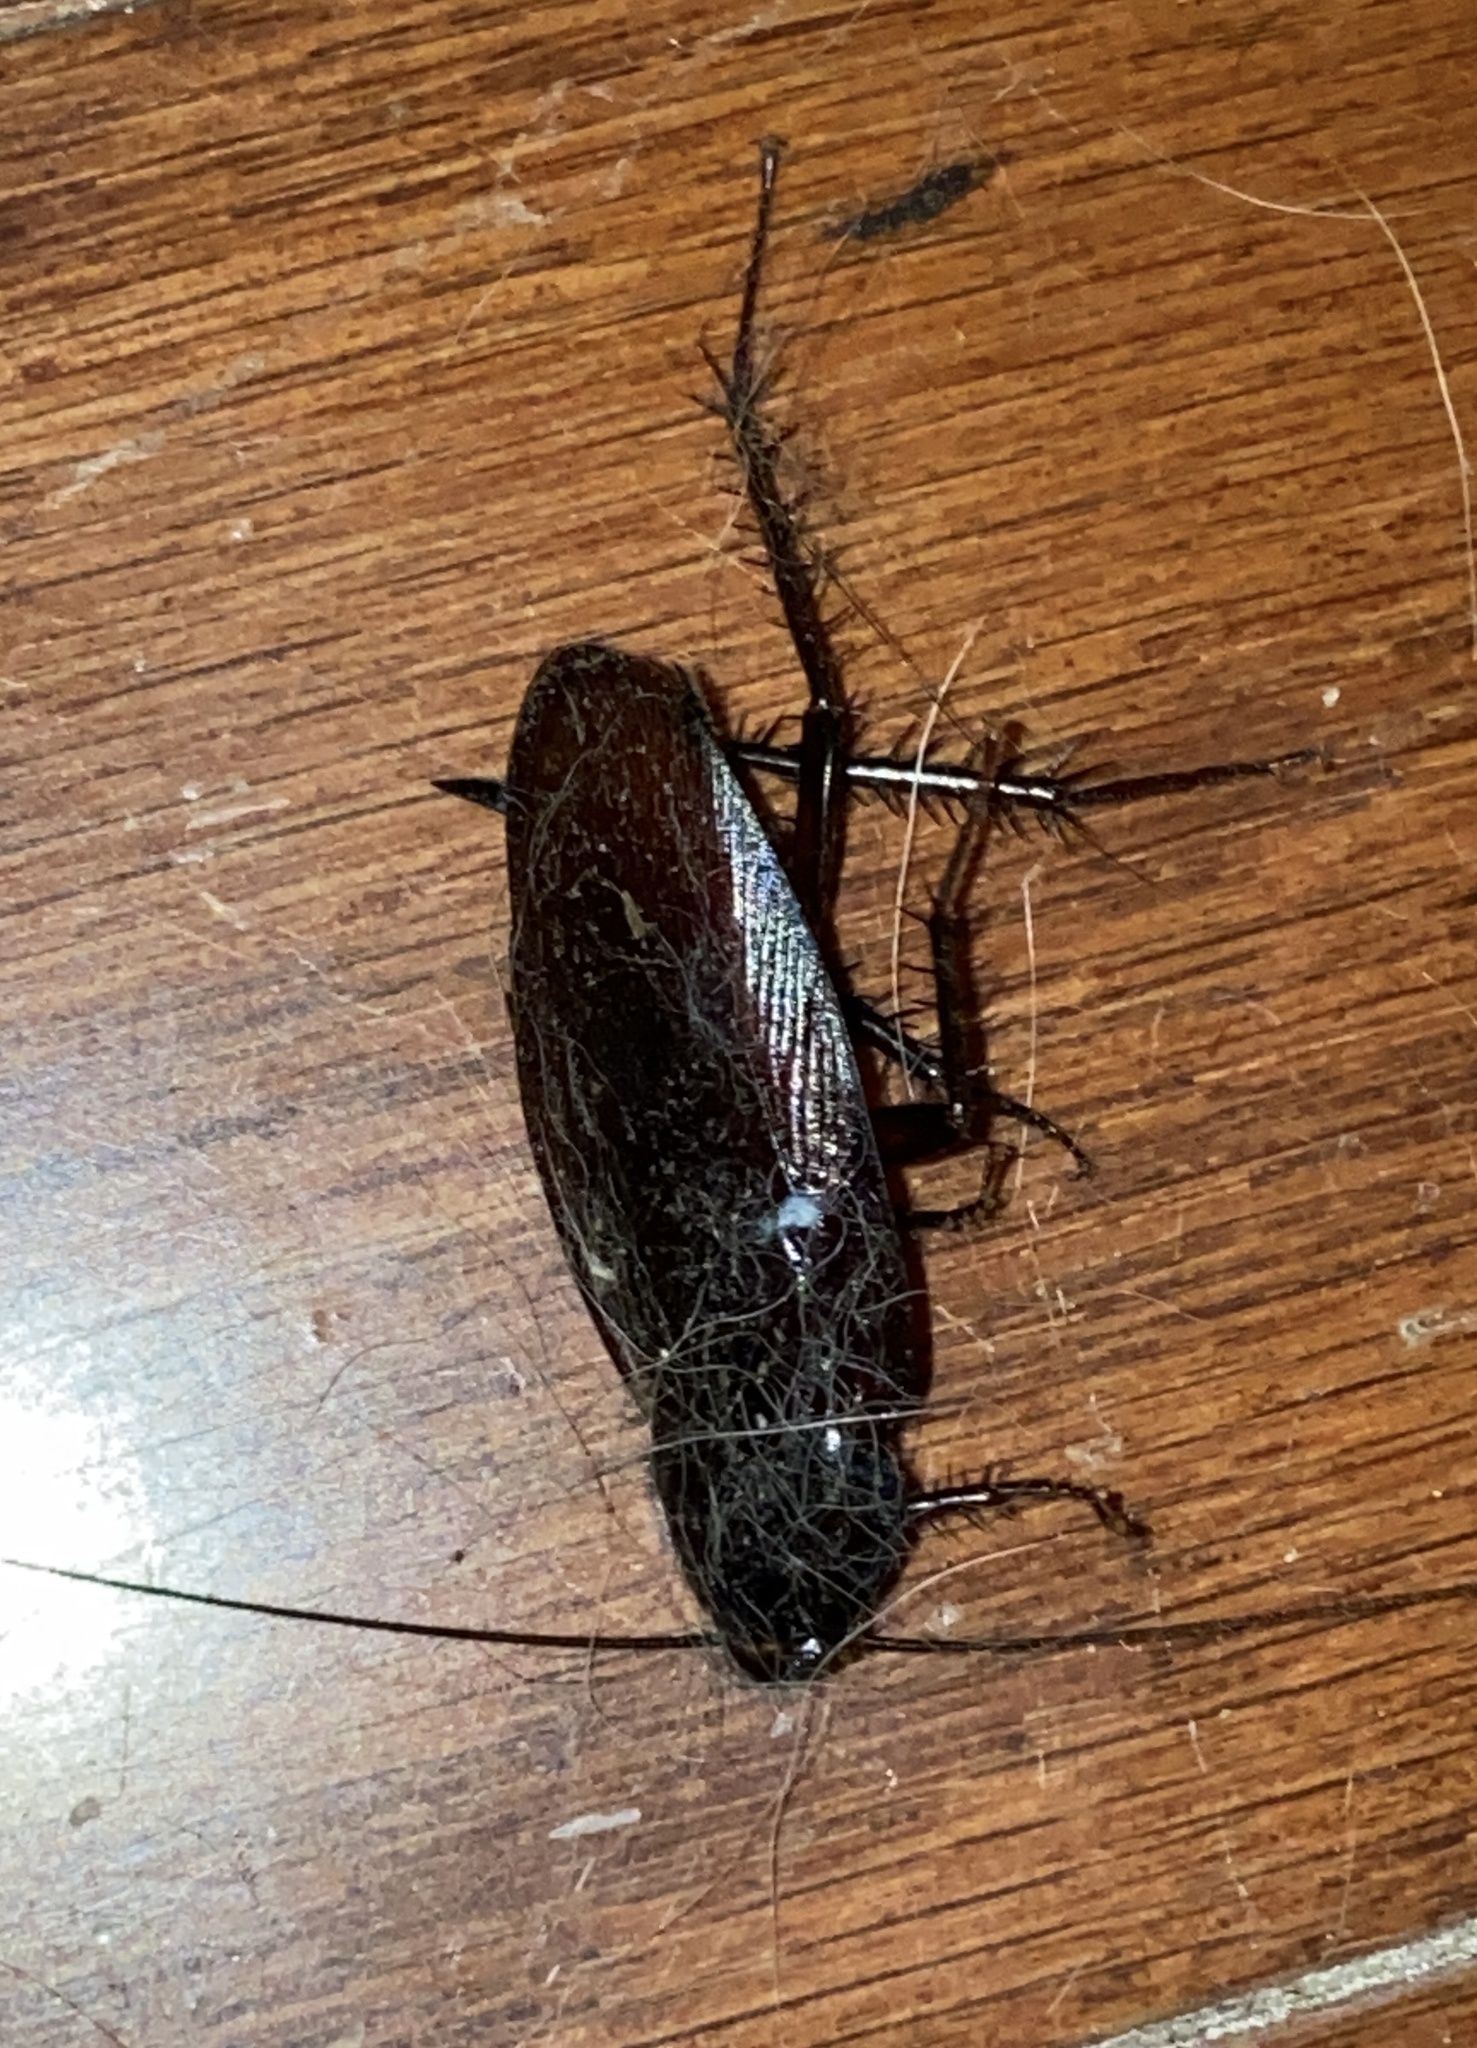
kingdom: Animalia
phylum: Arthropoda
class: Insecta
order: Blattodea
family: Blattidae
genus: Periplaneta
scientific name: Periplaneta fuliginosa
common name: Smokeybrown cockroad
